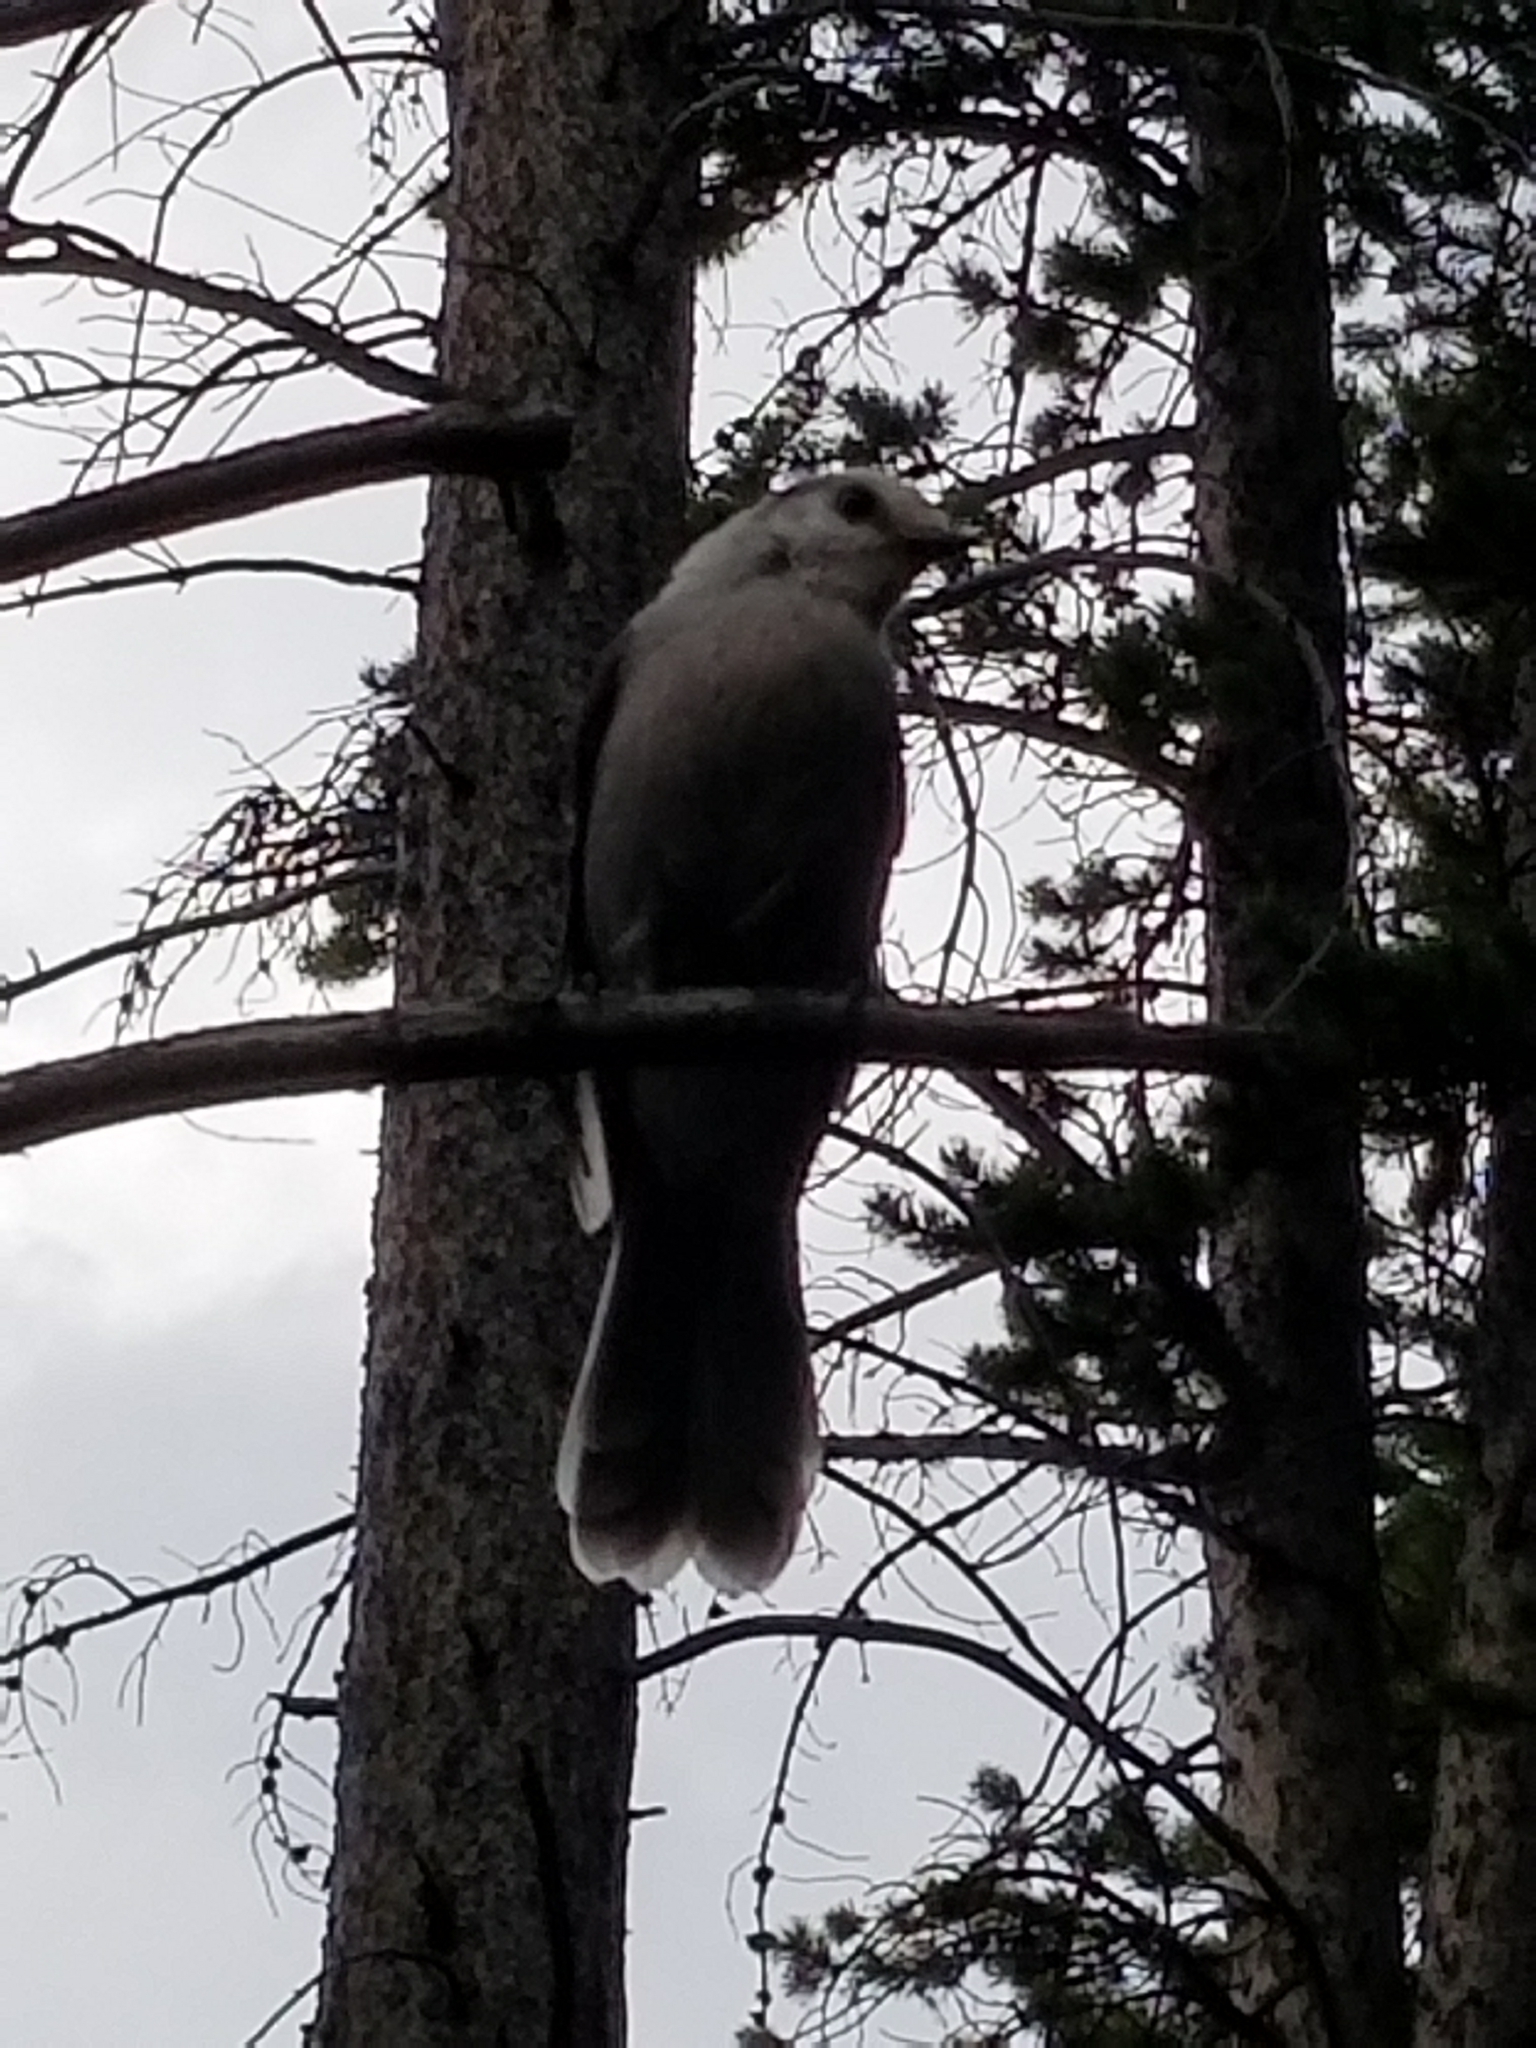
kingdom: Animalia
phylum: Chordata
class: Aves
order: Passeriformes
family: Corvidae
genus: Perisoreus
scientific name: Perisoreus canadensis
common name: Gray jay
